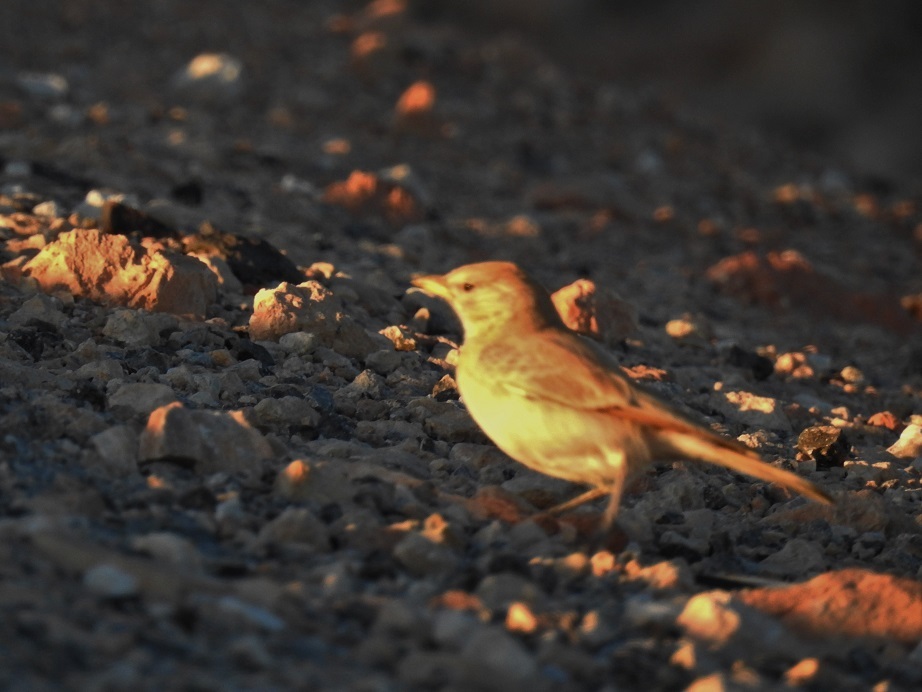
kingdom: Animalia
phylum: Chordata
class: Aves
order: Passeriformes
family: Alaudidae
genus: Ammomanes
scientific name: Ammomanes deserti
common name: Desert lark
